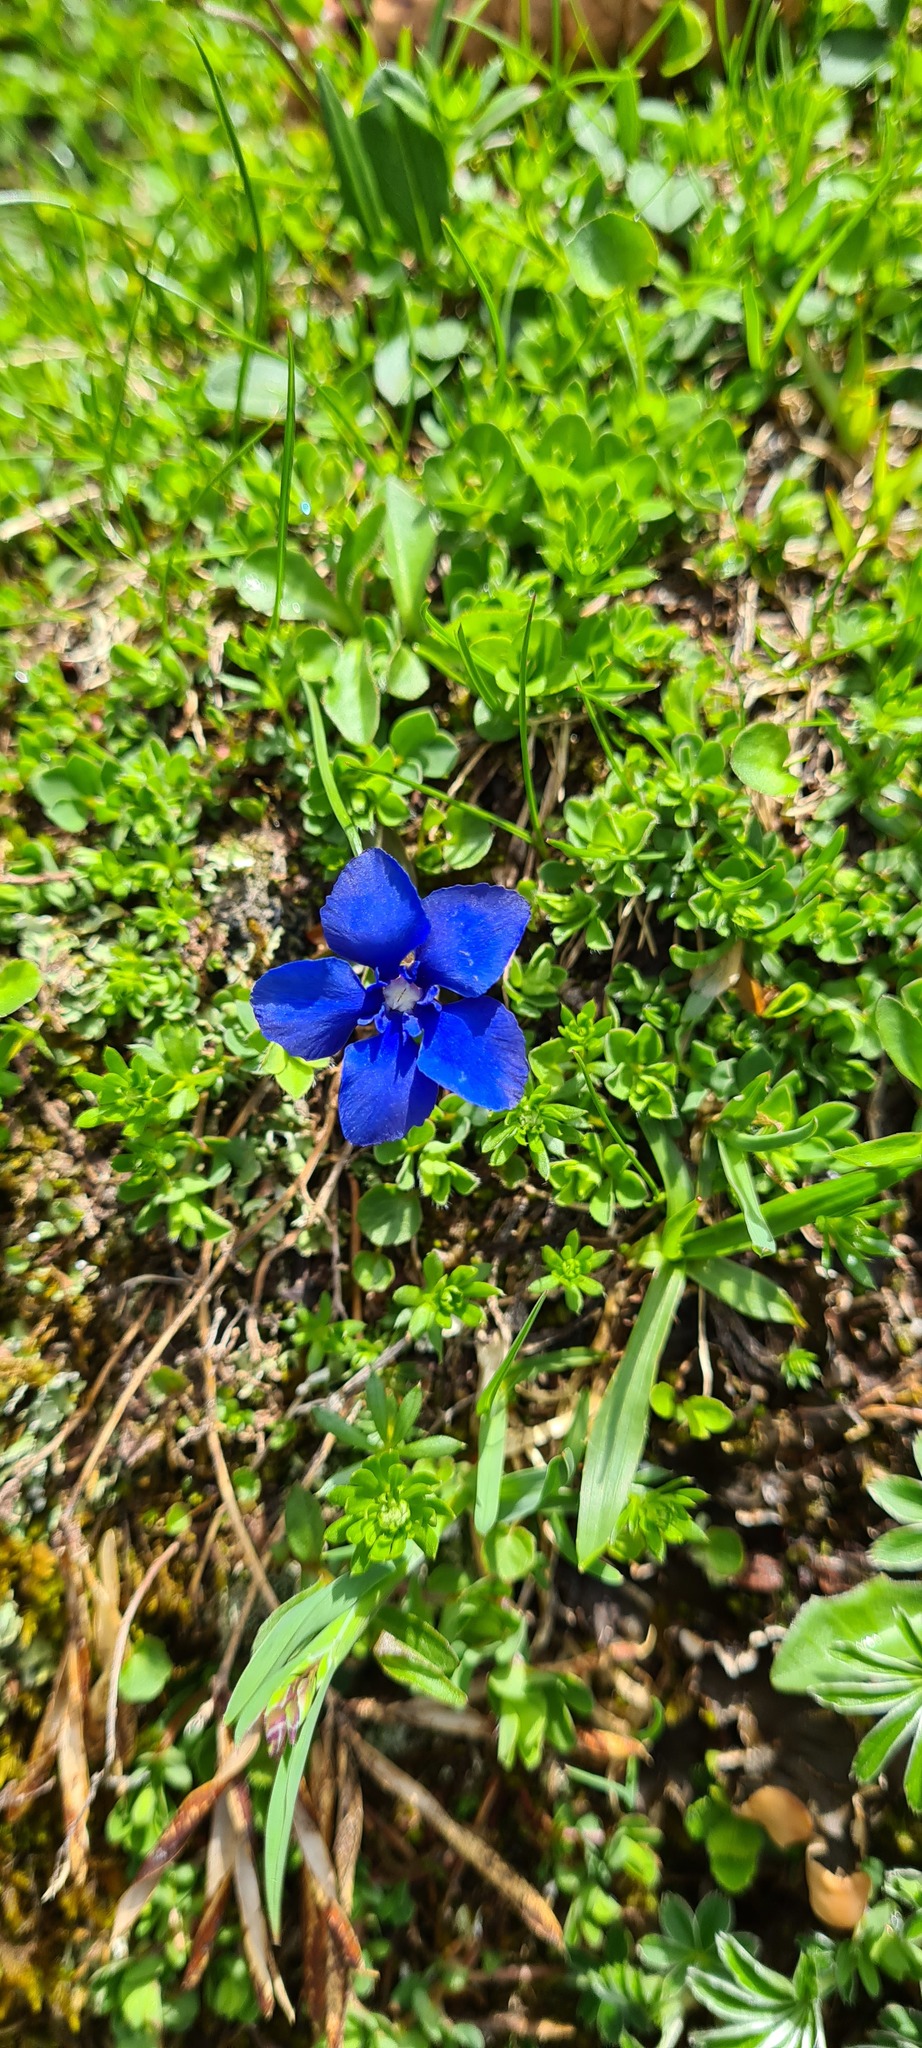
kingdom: Plantae
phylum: Tracheophyta
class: Magnoliopsida
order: Gentianales
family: Gentianaceae
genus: Gentiana
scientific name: Gentiana
